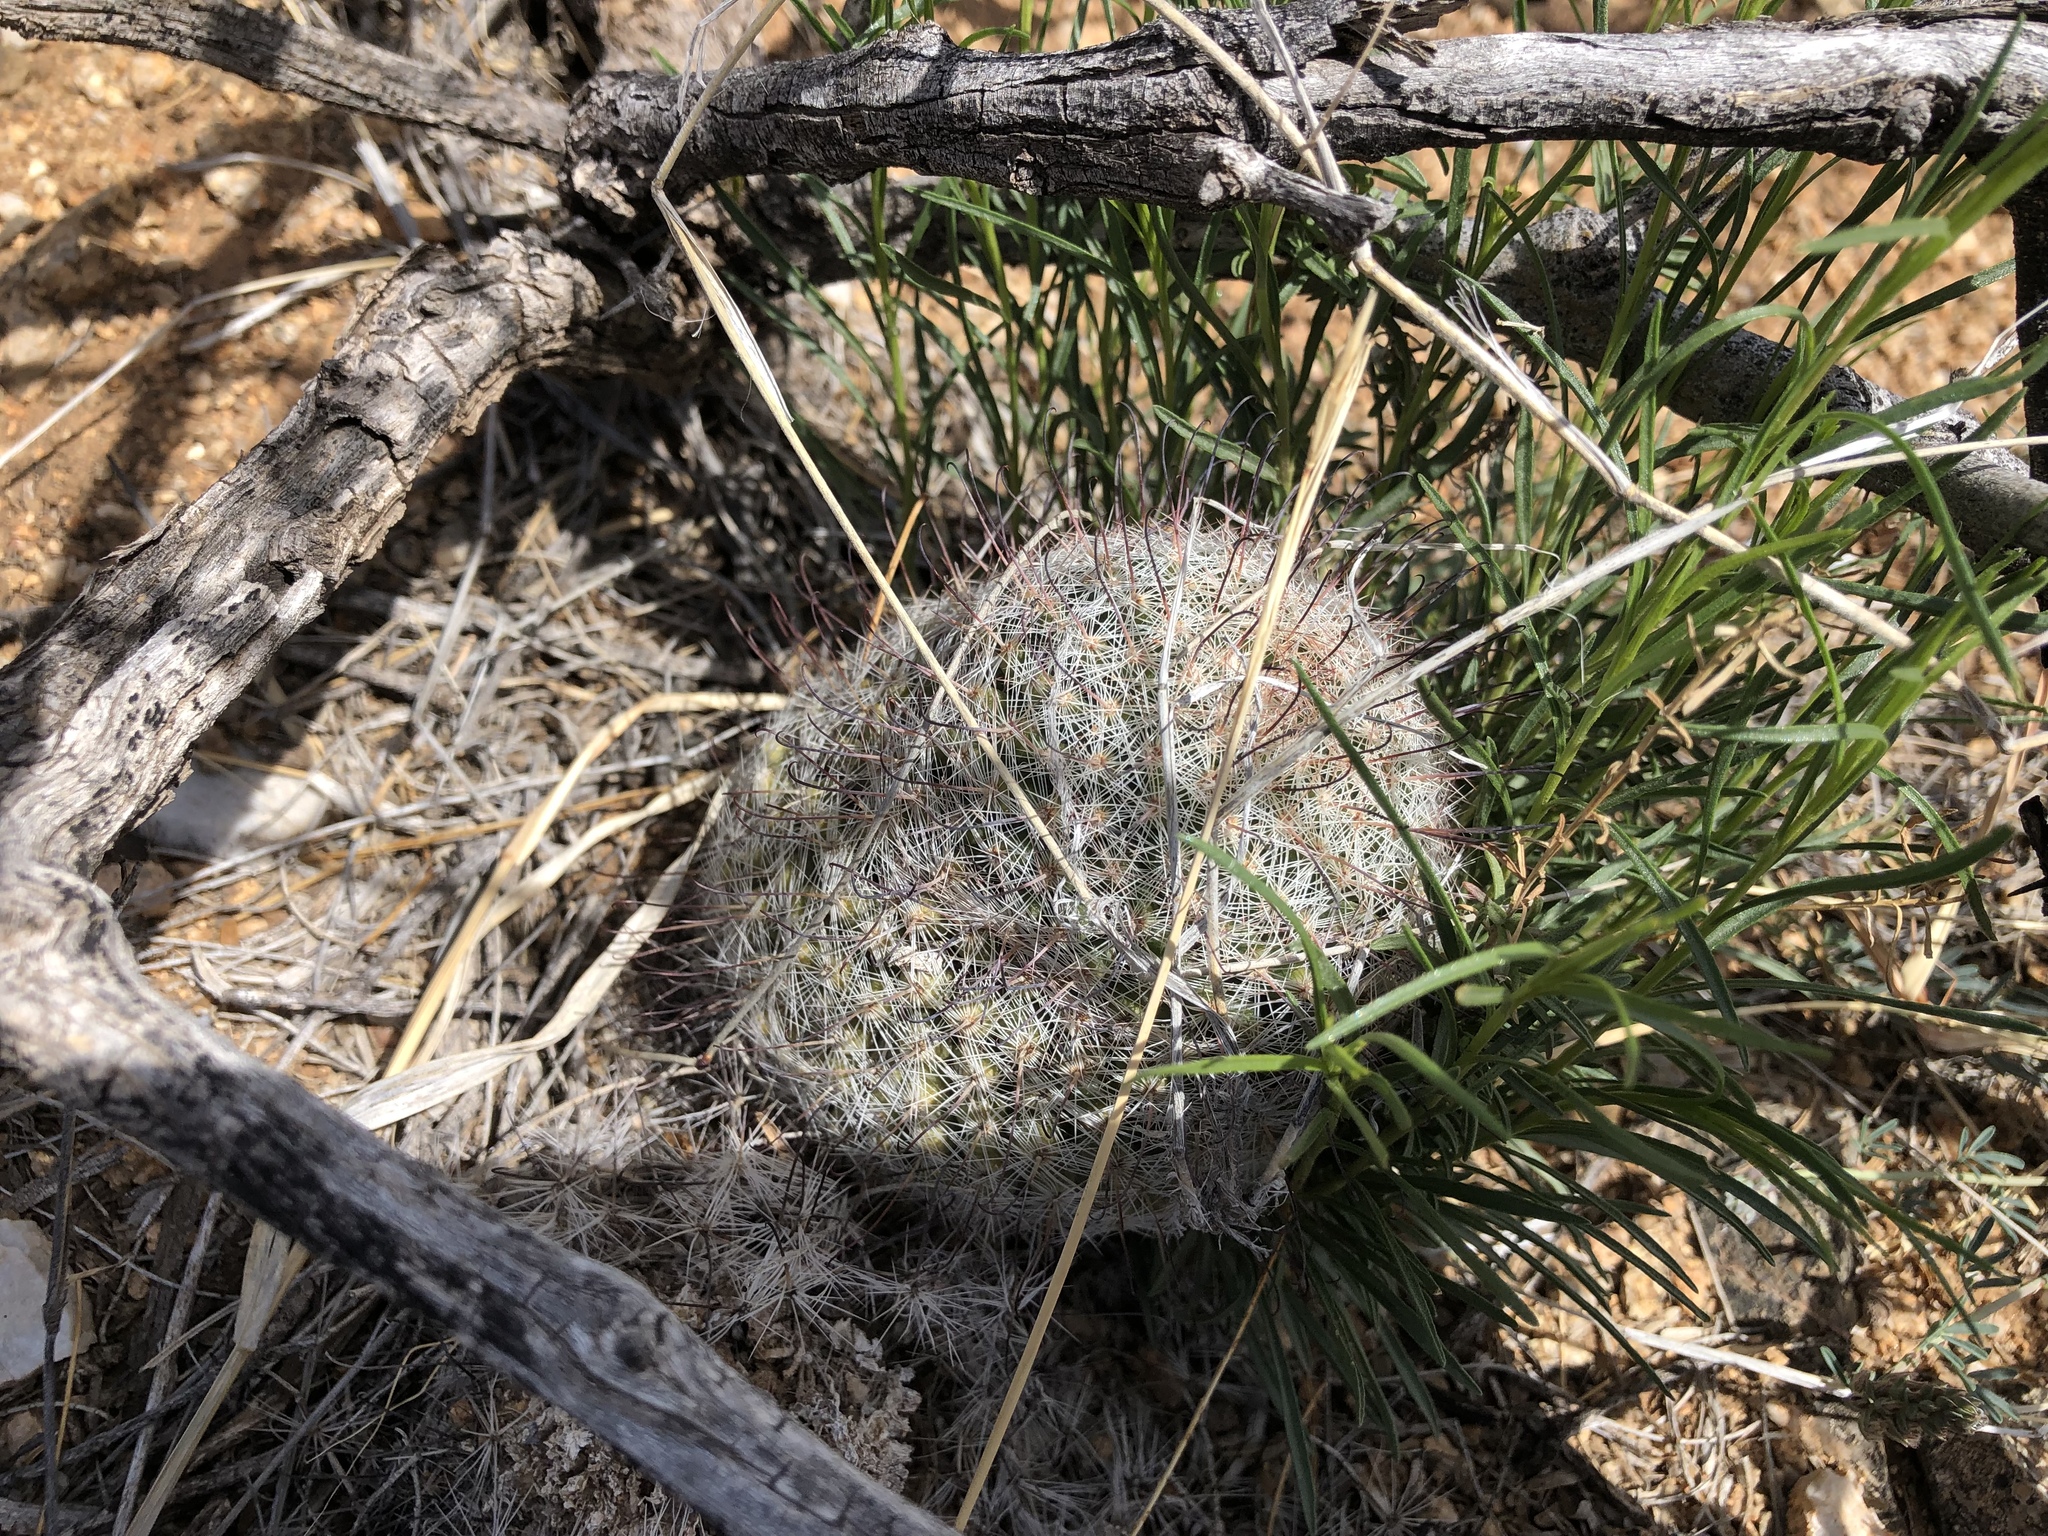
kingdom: Plantae
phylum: Tracheophyta
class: Magnoliopsida
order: Caryophyllales
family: Cactaceae
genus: Cochemiea
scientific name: Cochemiea grahamii
